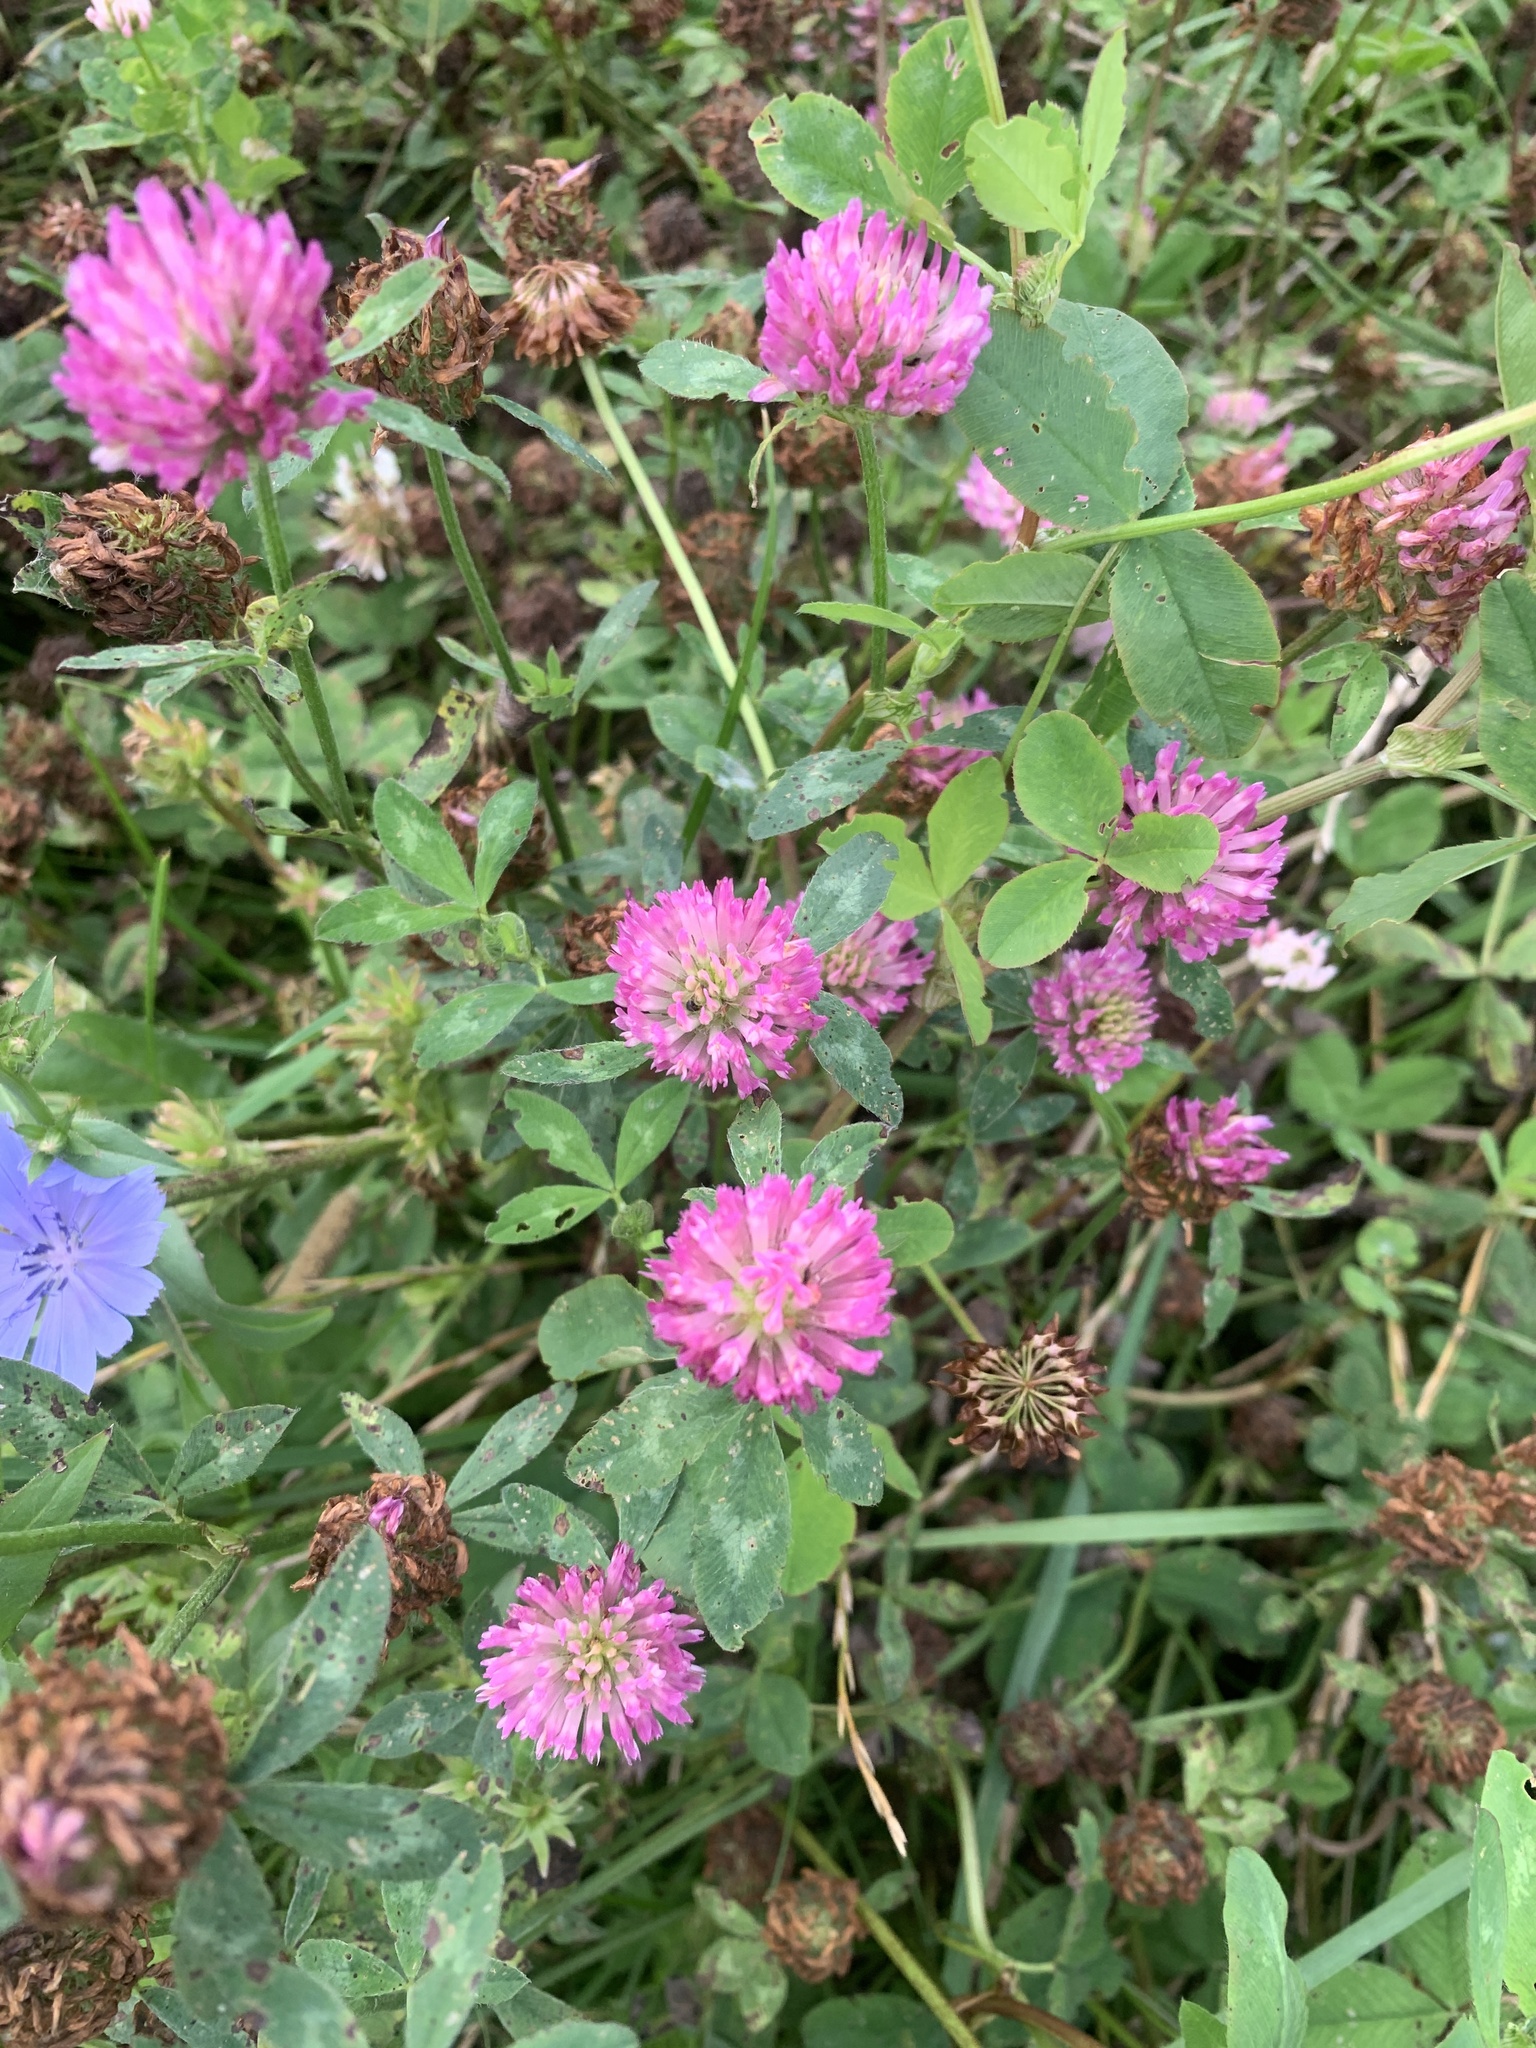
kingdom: Plantae
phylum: Tracheophyta
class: Magnoliopsida
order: Fabales
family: Fabaceae
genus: Trifolium
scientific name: Trifolium pratense
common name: Red clover
